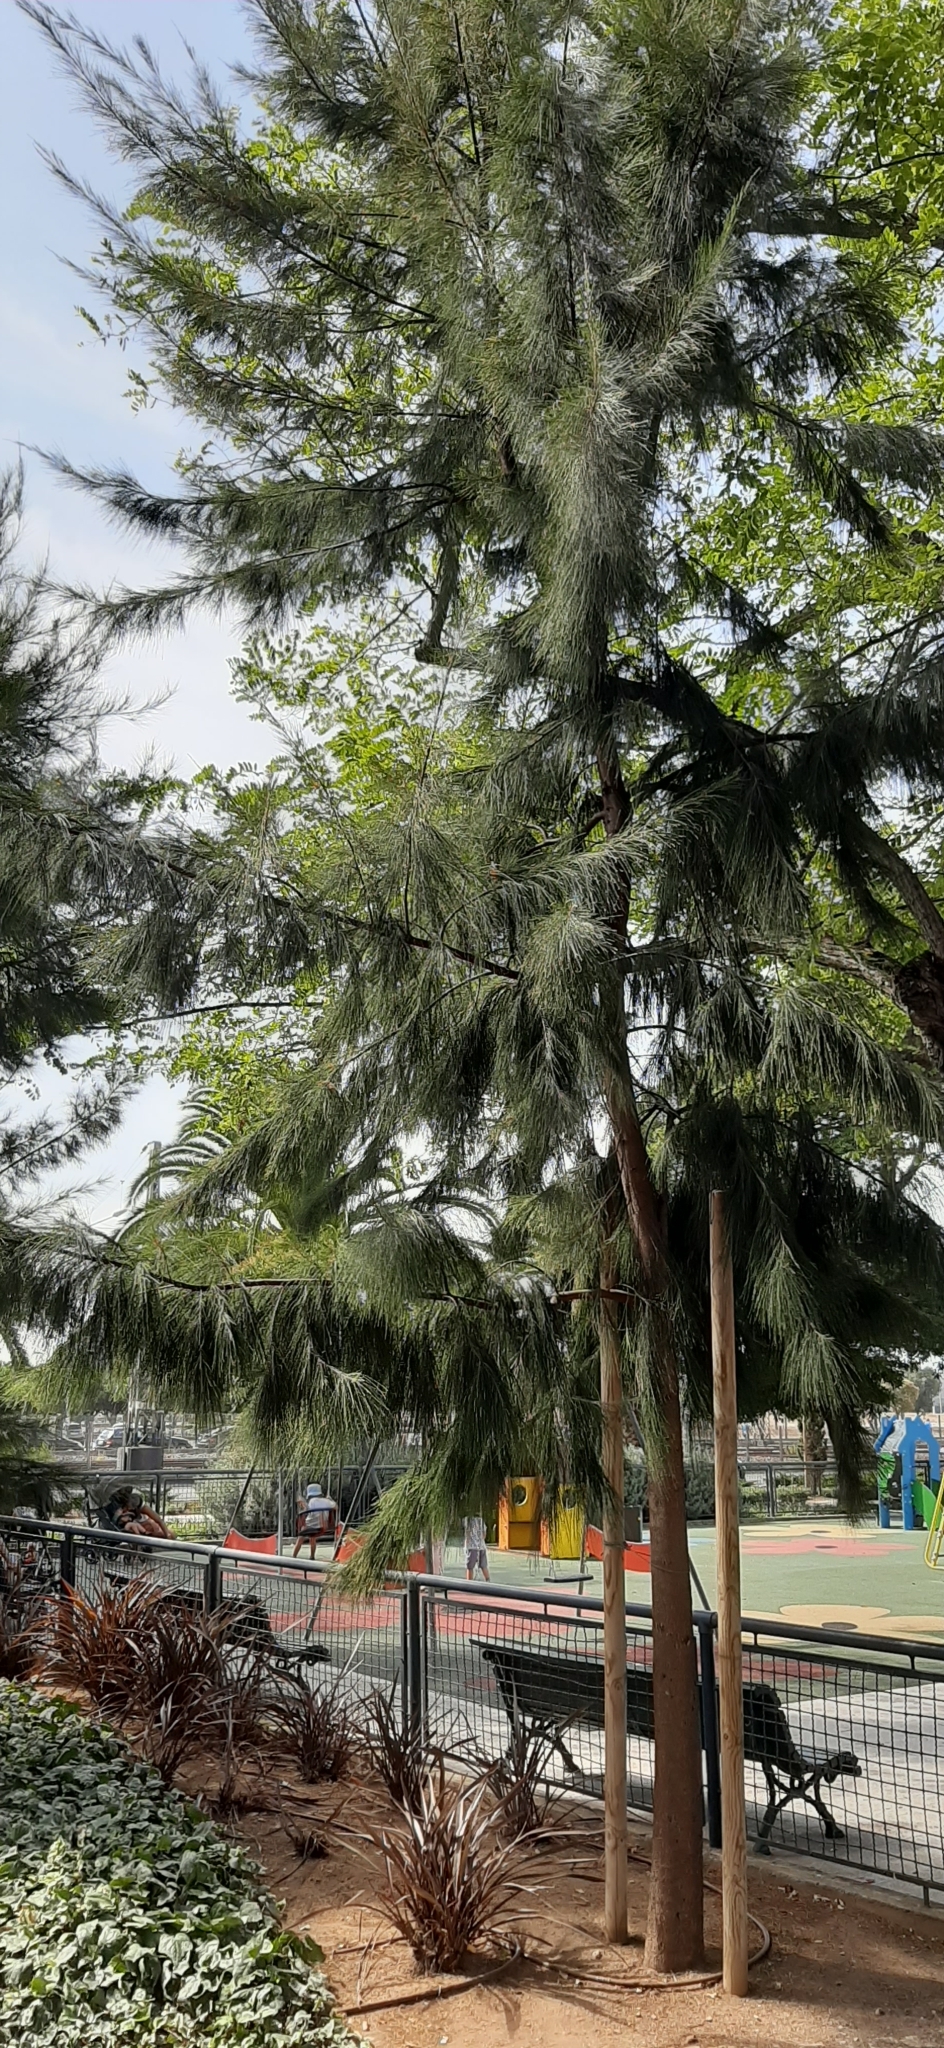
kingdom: Plantae
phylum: Tracheophyta
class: Magnoliopsida
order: Fagales
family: Casuarinaceae
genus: Casuarina
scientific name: Casuarina equisetifolia
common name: Beach sheoak
